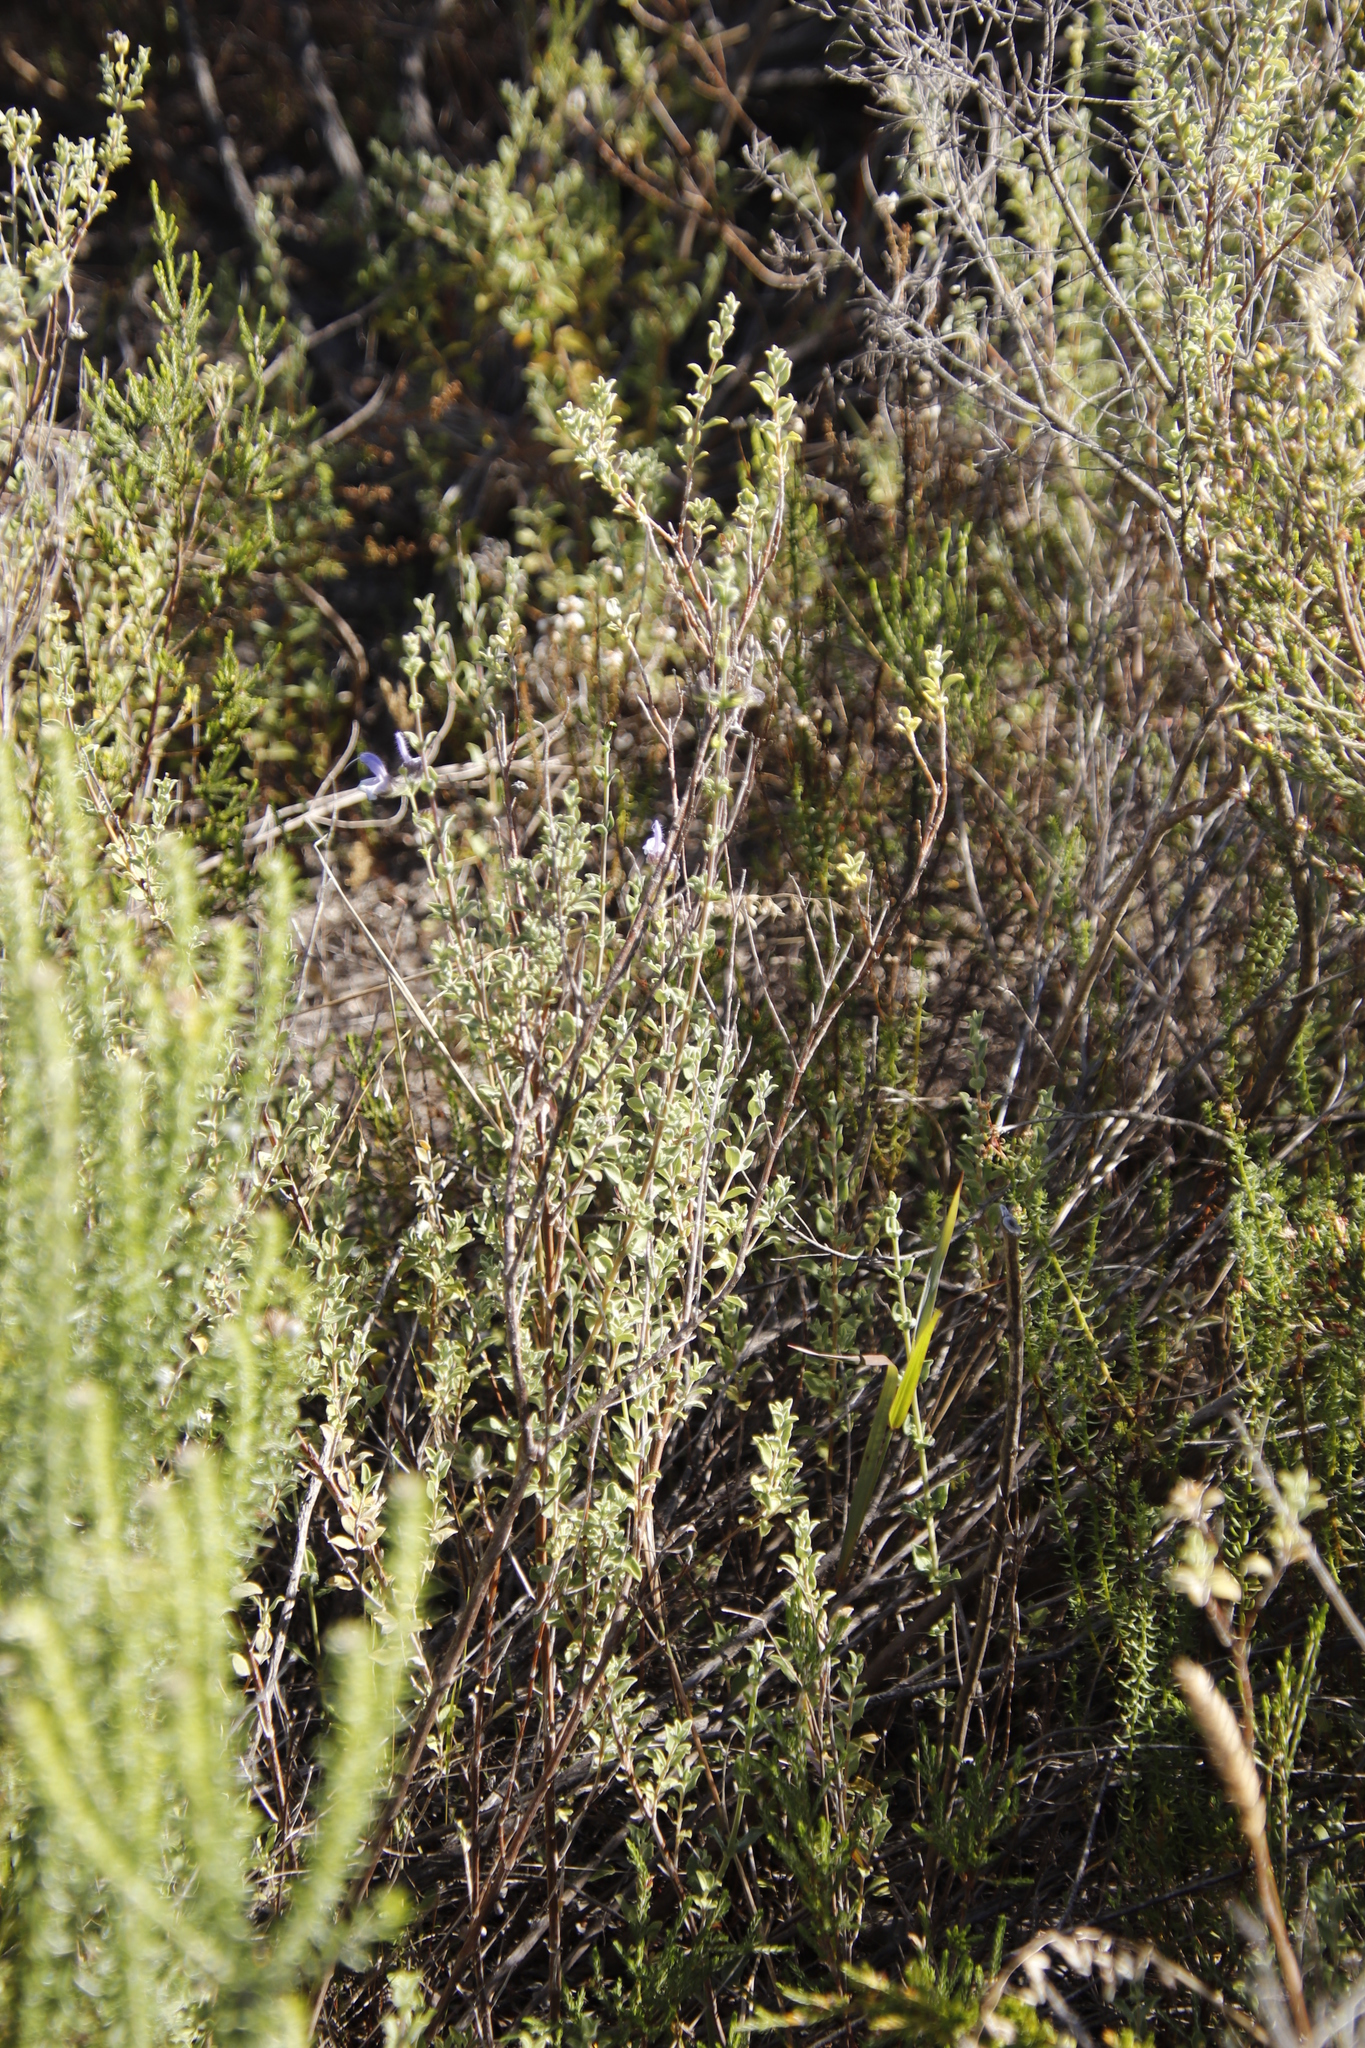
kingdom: Plantae
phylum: Tracheophyta
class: Magnoliopsida
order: Lamiales
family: Lamiaceae
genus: Salvia
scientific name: Salvia africana
